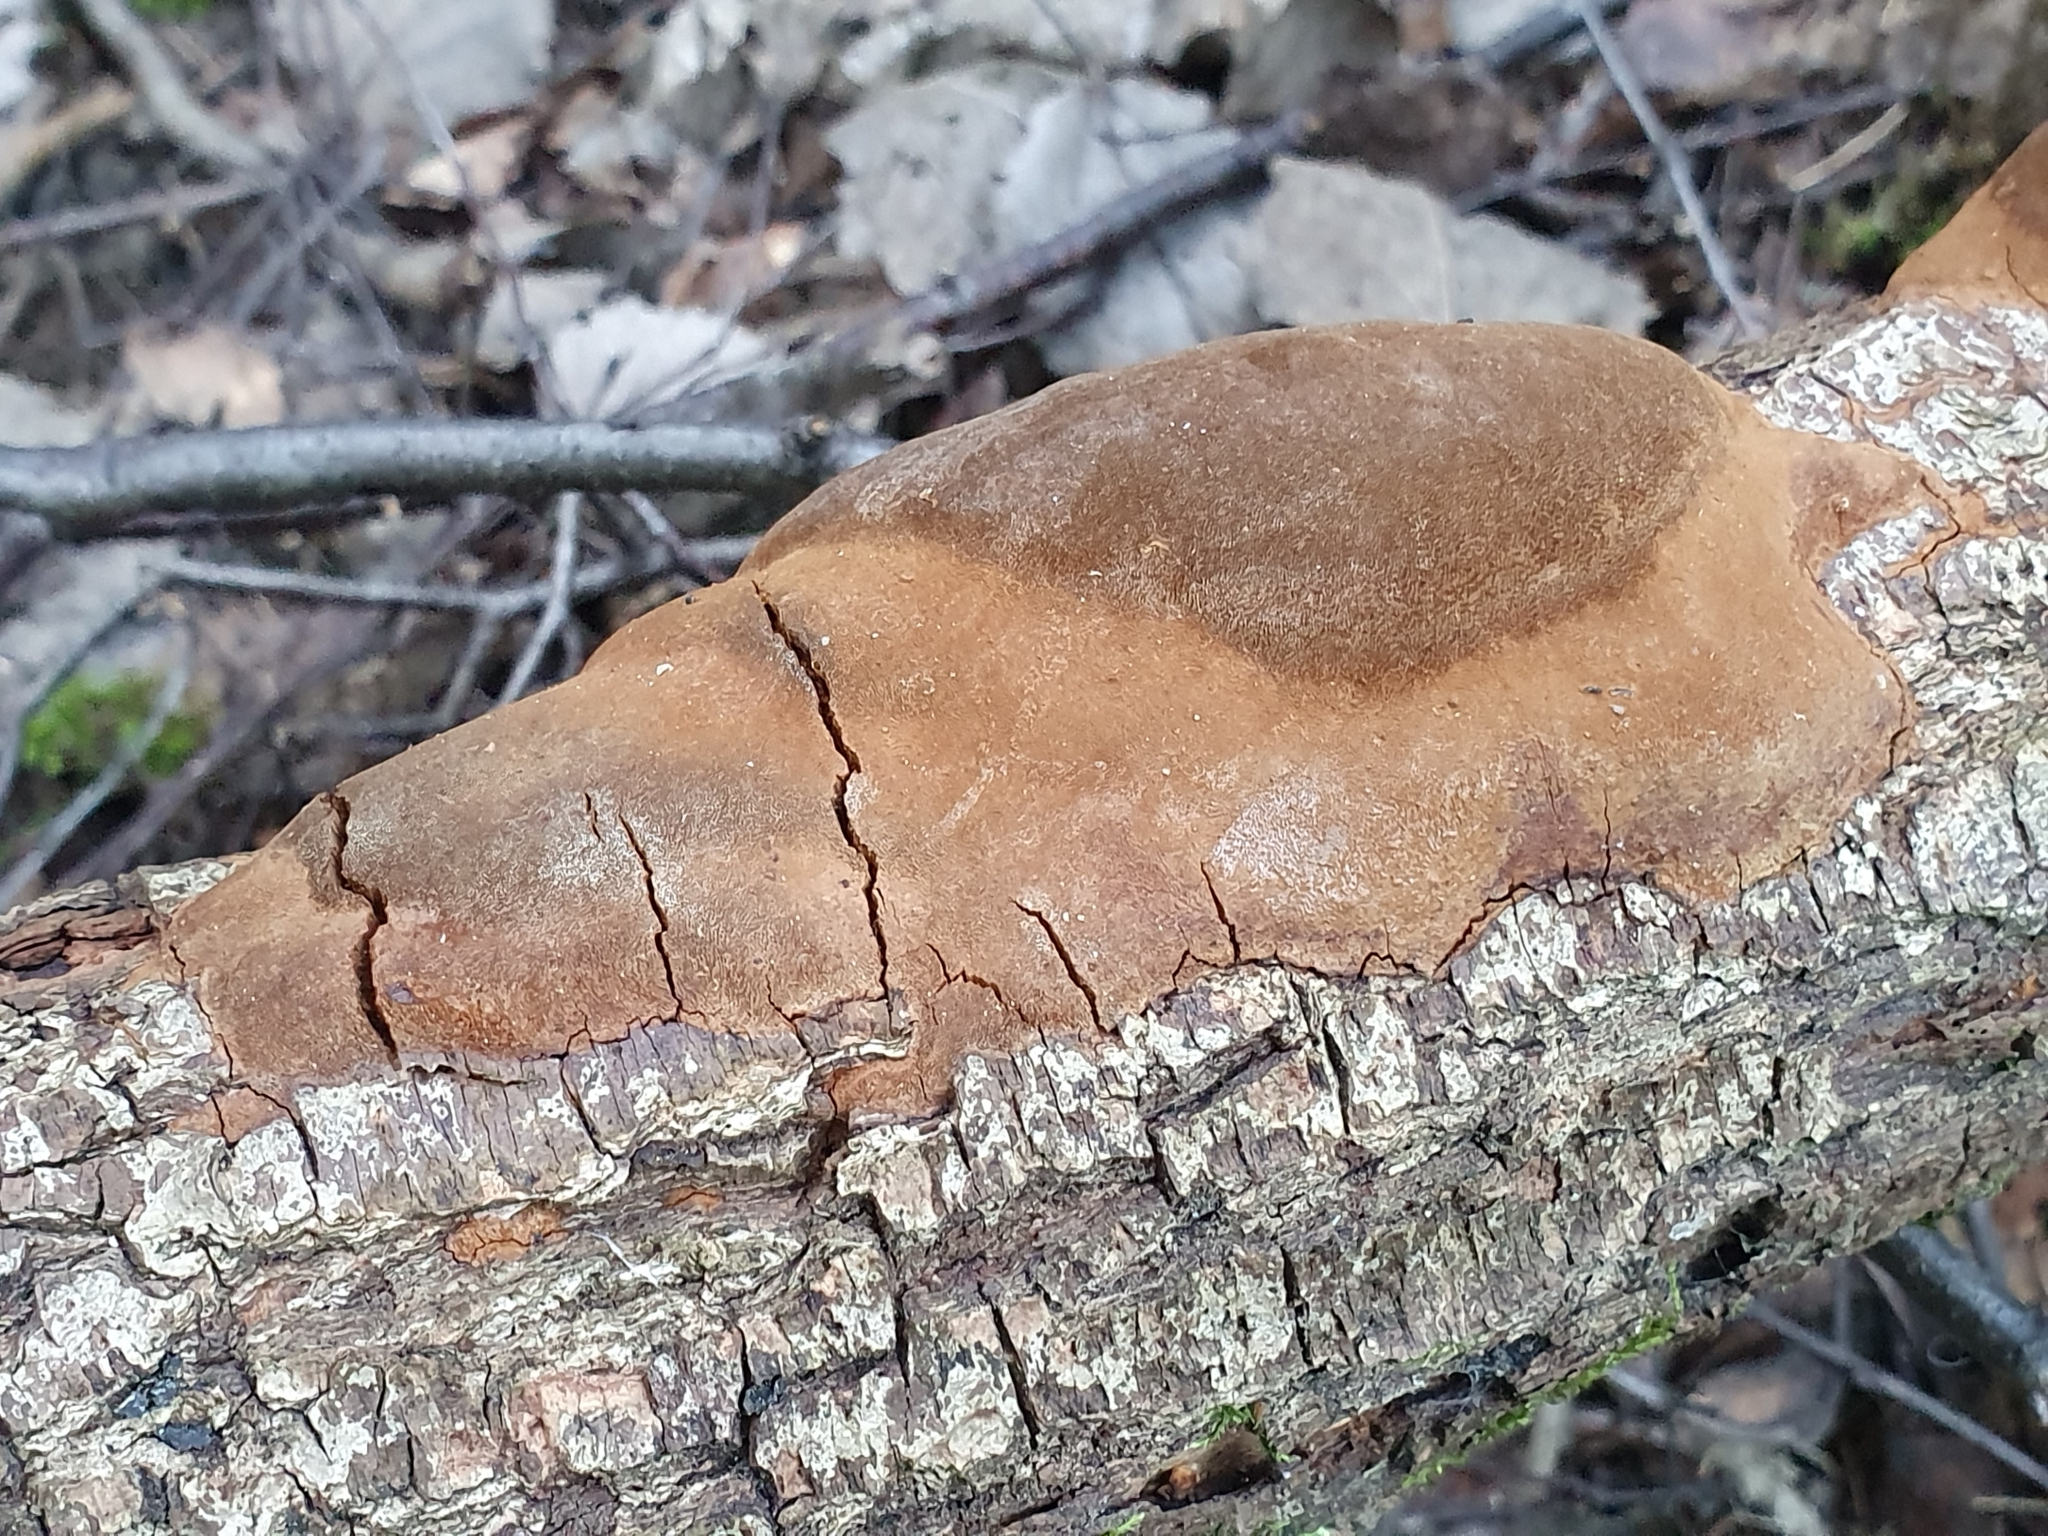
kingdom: Fungi
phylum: Basidiomycota
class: Agaricomycetes
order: Hymenochaetales
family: Hymenochaetaceae
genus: Fomitiporia
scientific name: Fomitiporia punctata
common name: Elbowpatch crust
